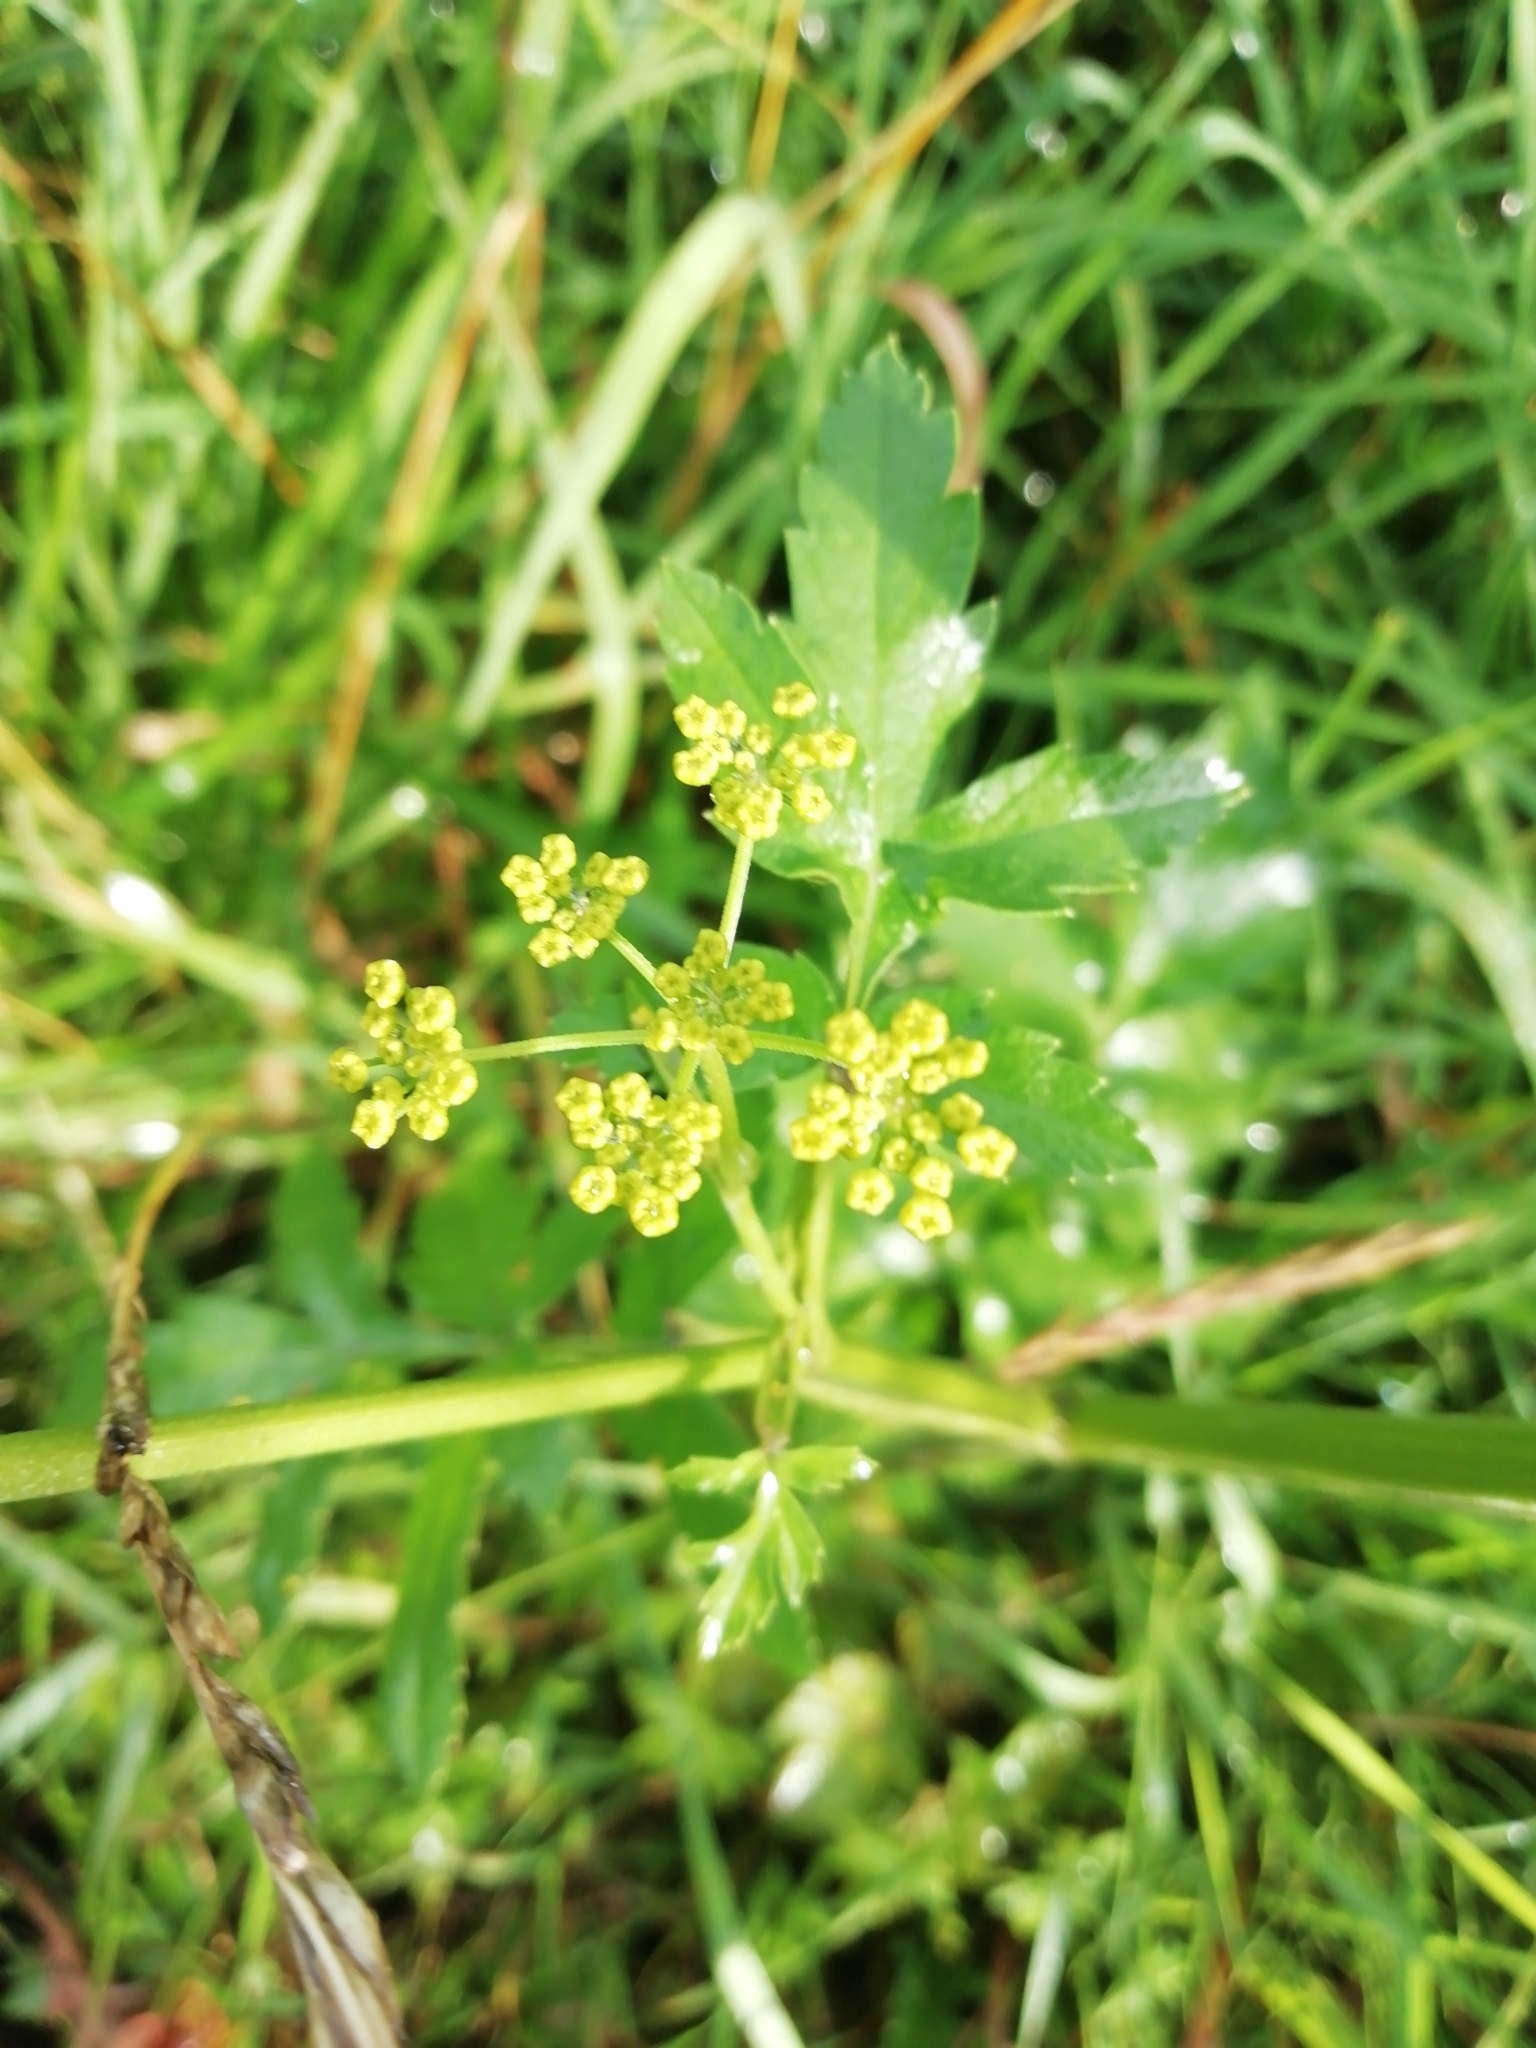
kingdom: Plantae
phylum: Tracheophyta
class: Magnoliopsida
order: Apiales
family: Apiaceae
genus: Pastinaca
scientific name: Pastinaca sativa
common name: Wild parsnip
